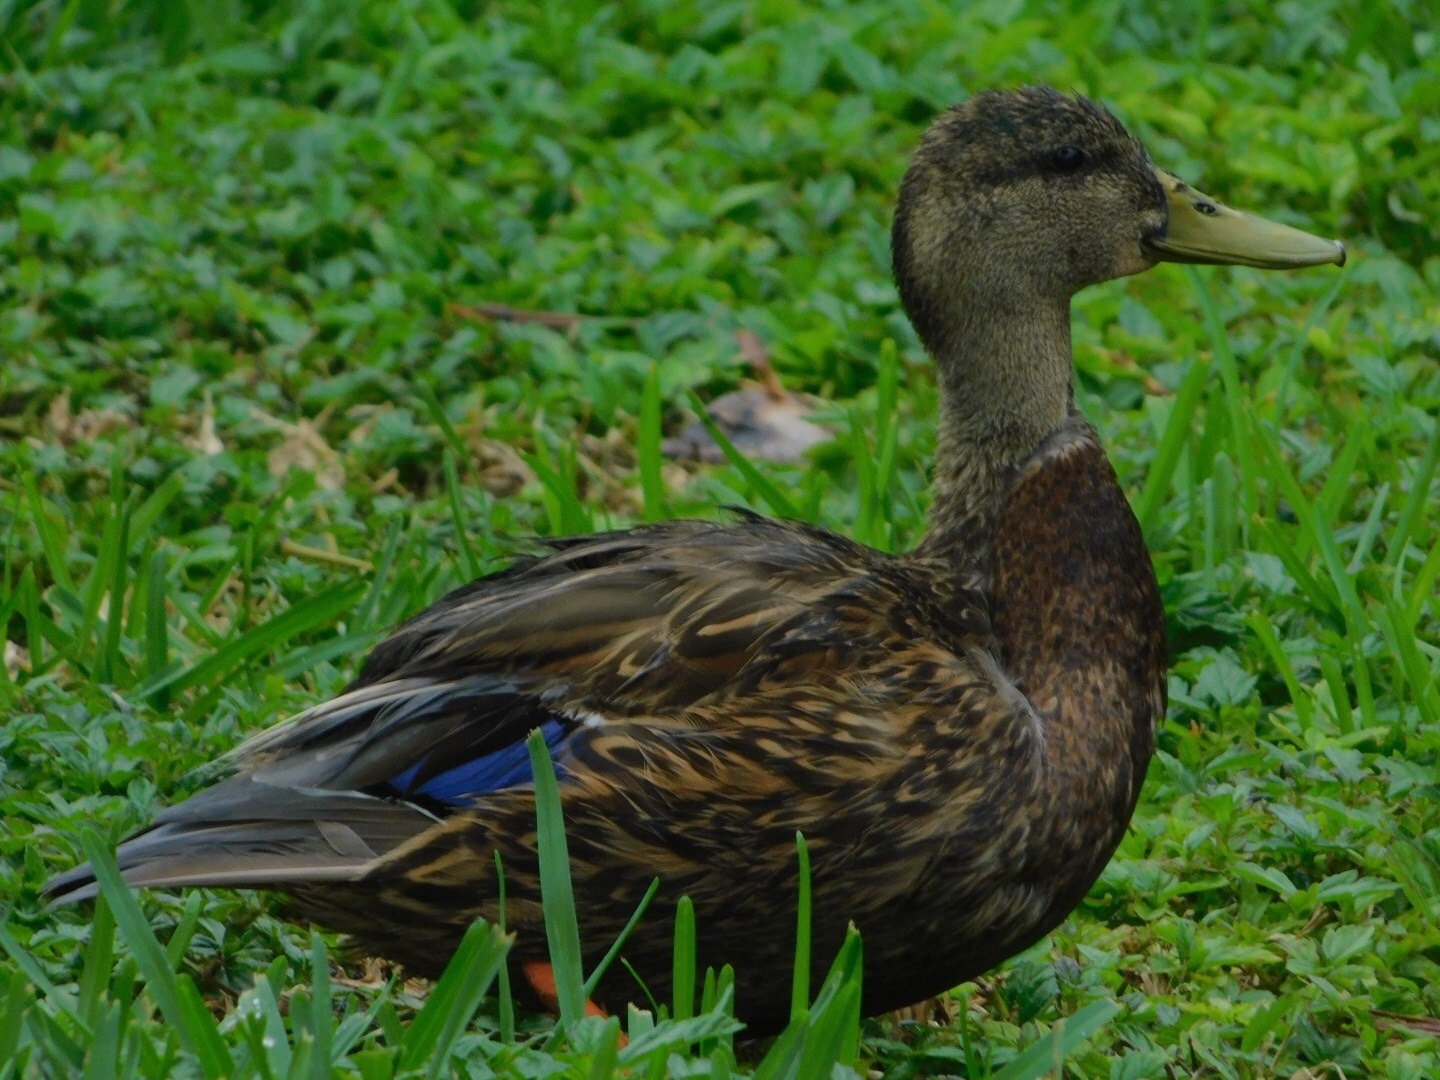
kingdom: Animalia
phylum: Chordata
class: Aves
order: Anseriformes
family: Anatidae
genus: Anas
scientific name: Anas
